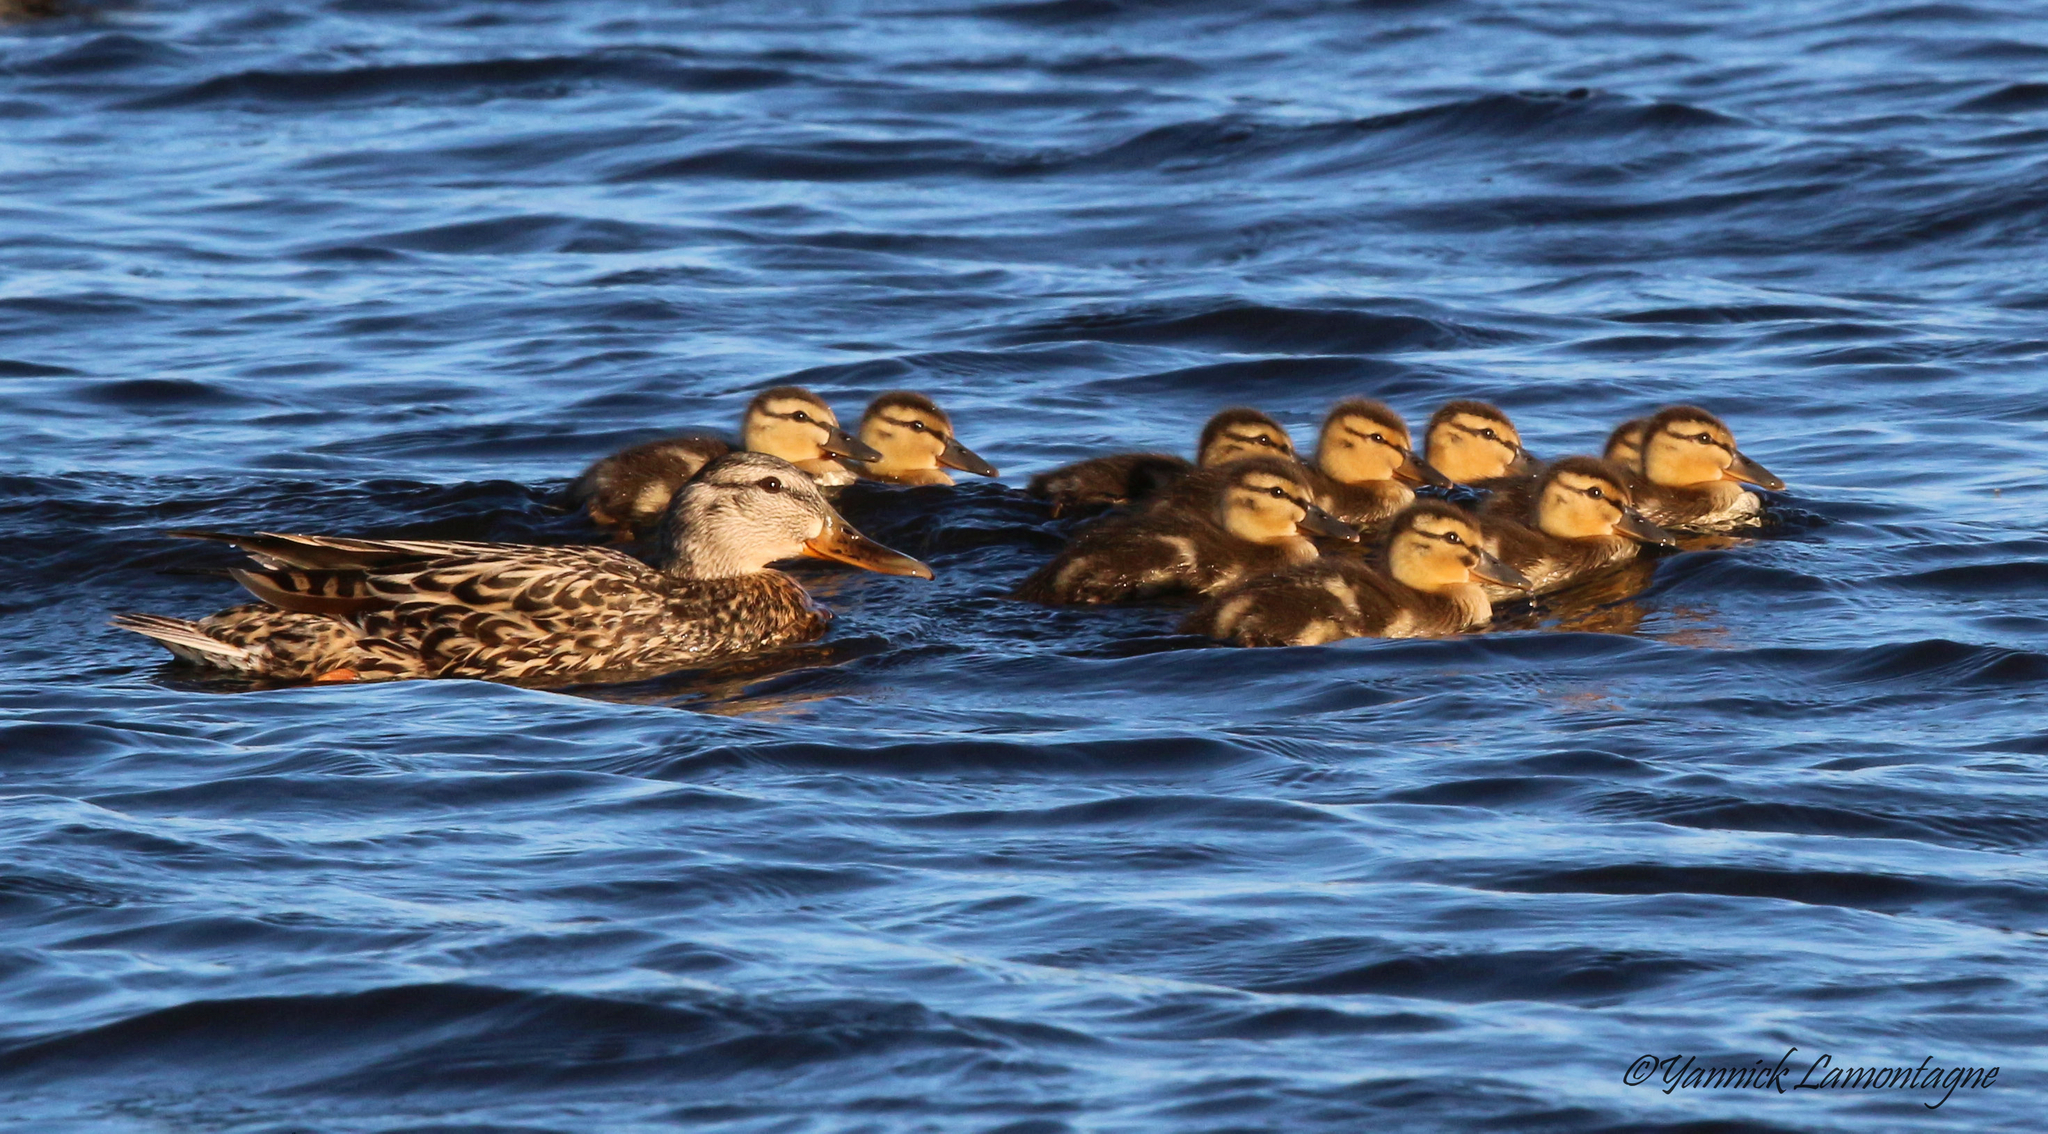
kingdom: Animalia
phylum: Chordata
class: Aves
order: Anseriformes
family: Anatidae
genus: Anas
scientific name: Anas platyrhynchos
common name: Mallard
